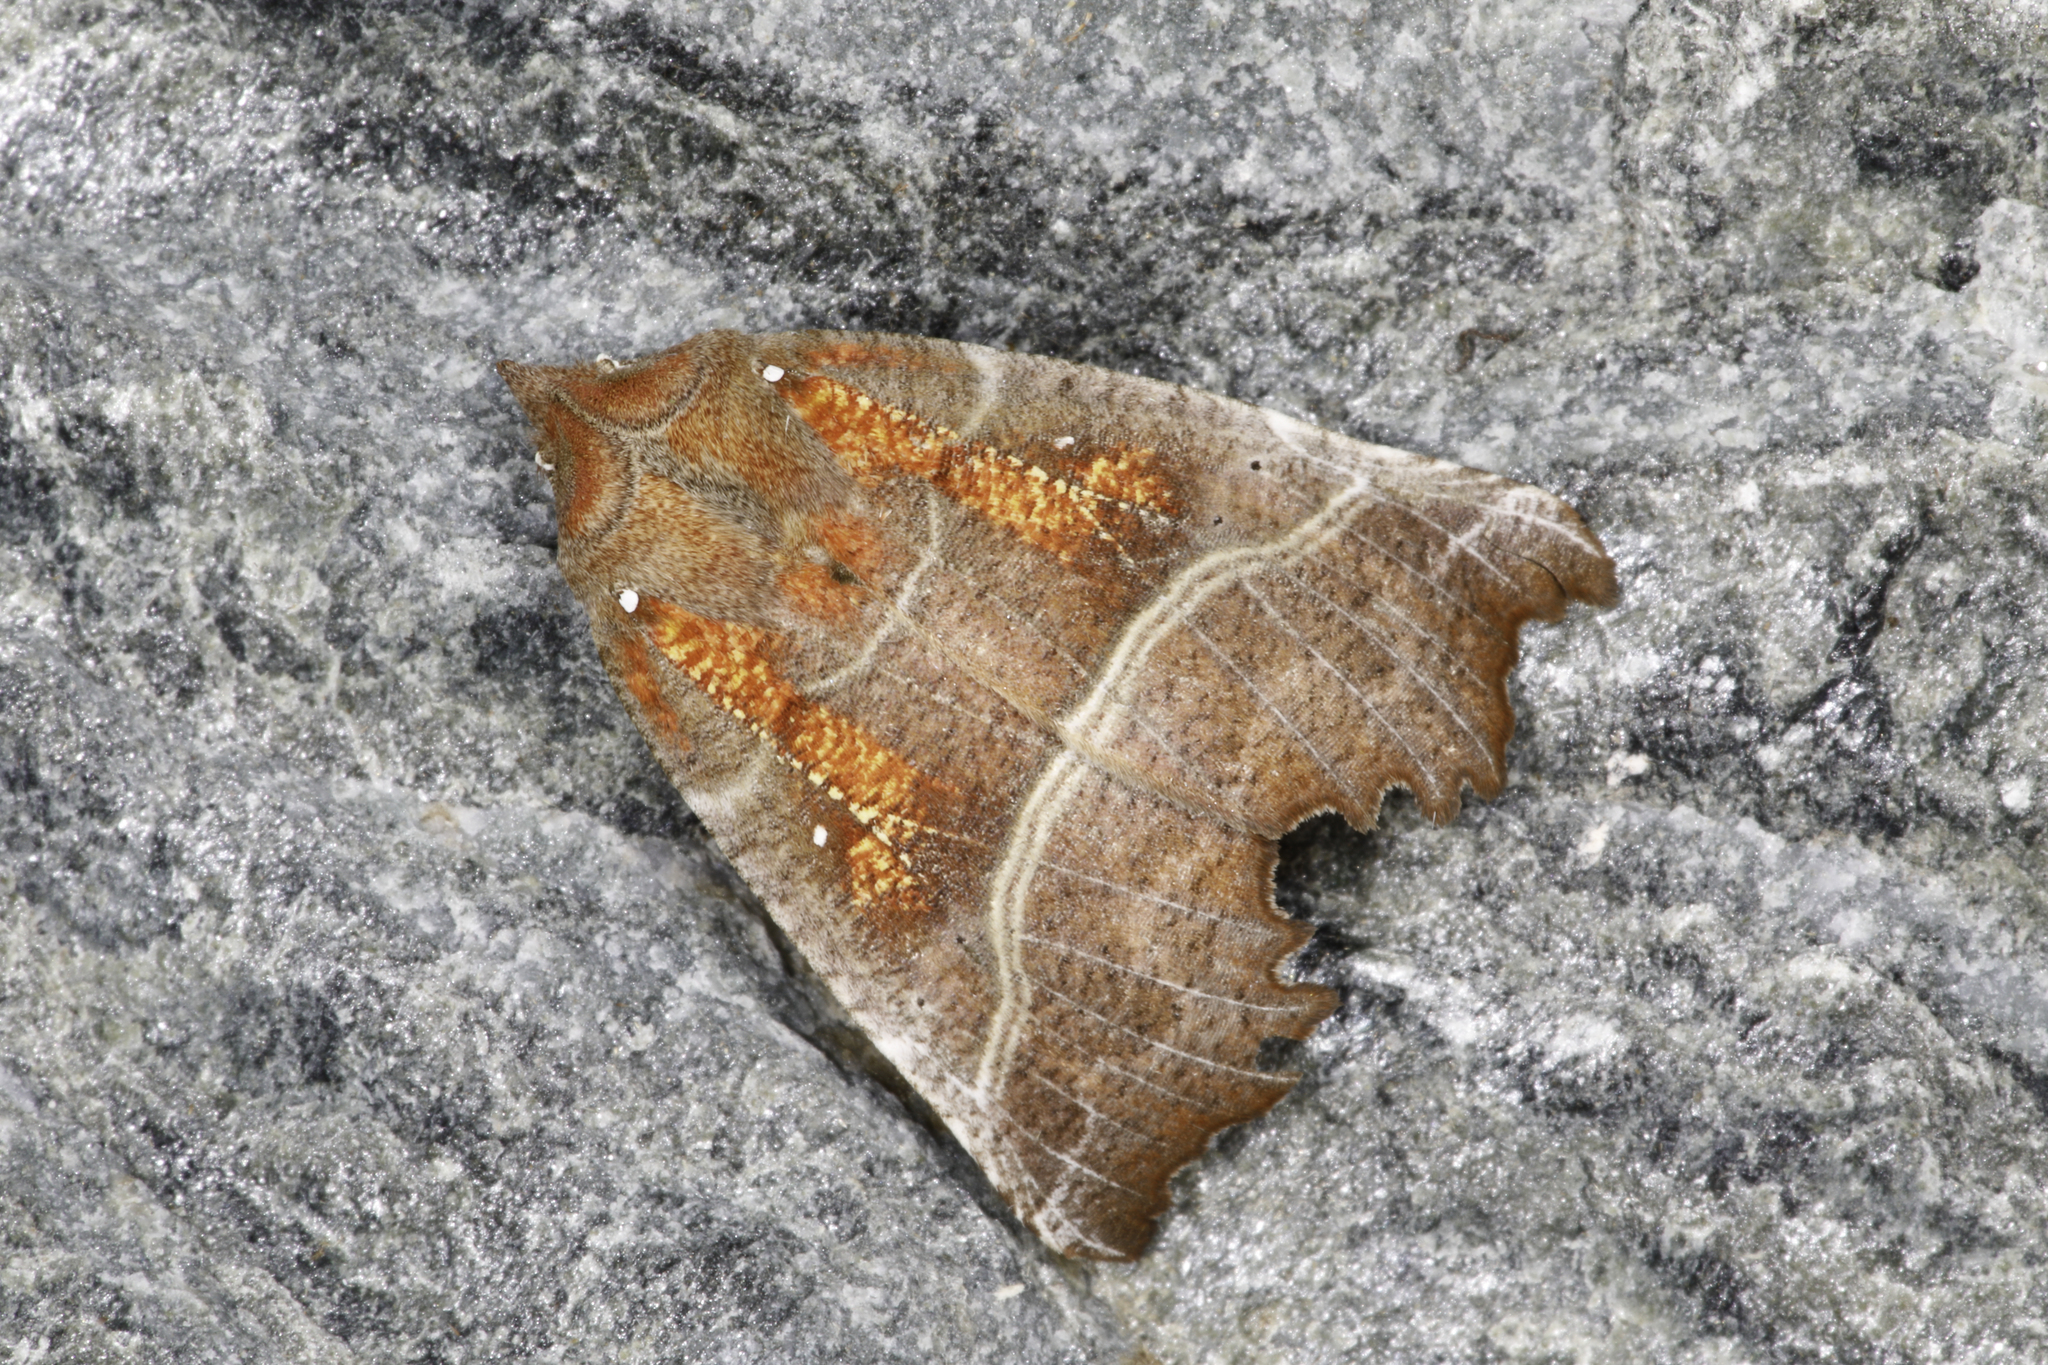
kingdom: Animalia
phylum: Arthropoda
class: Insecta
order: Lepidoptera
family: Erebidae
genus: Scoliopteryx
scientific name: Scoliopteryx libatrix
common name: Herald
